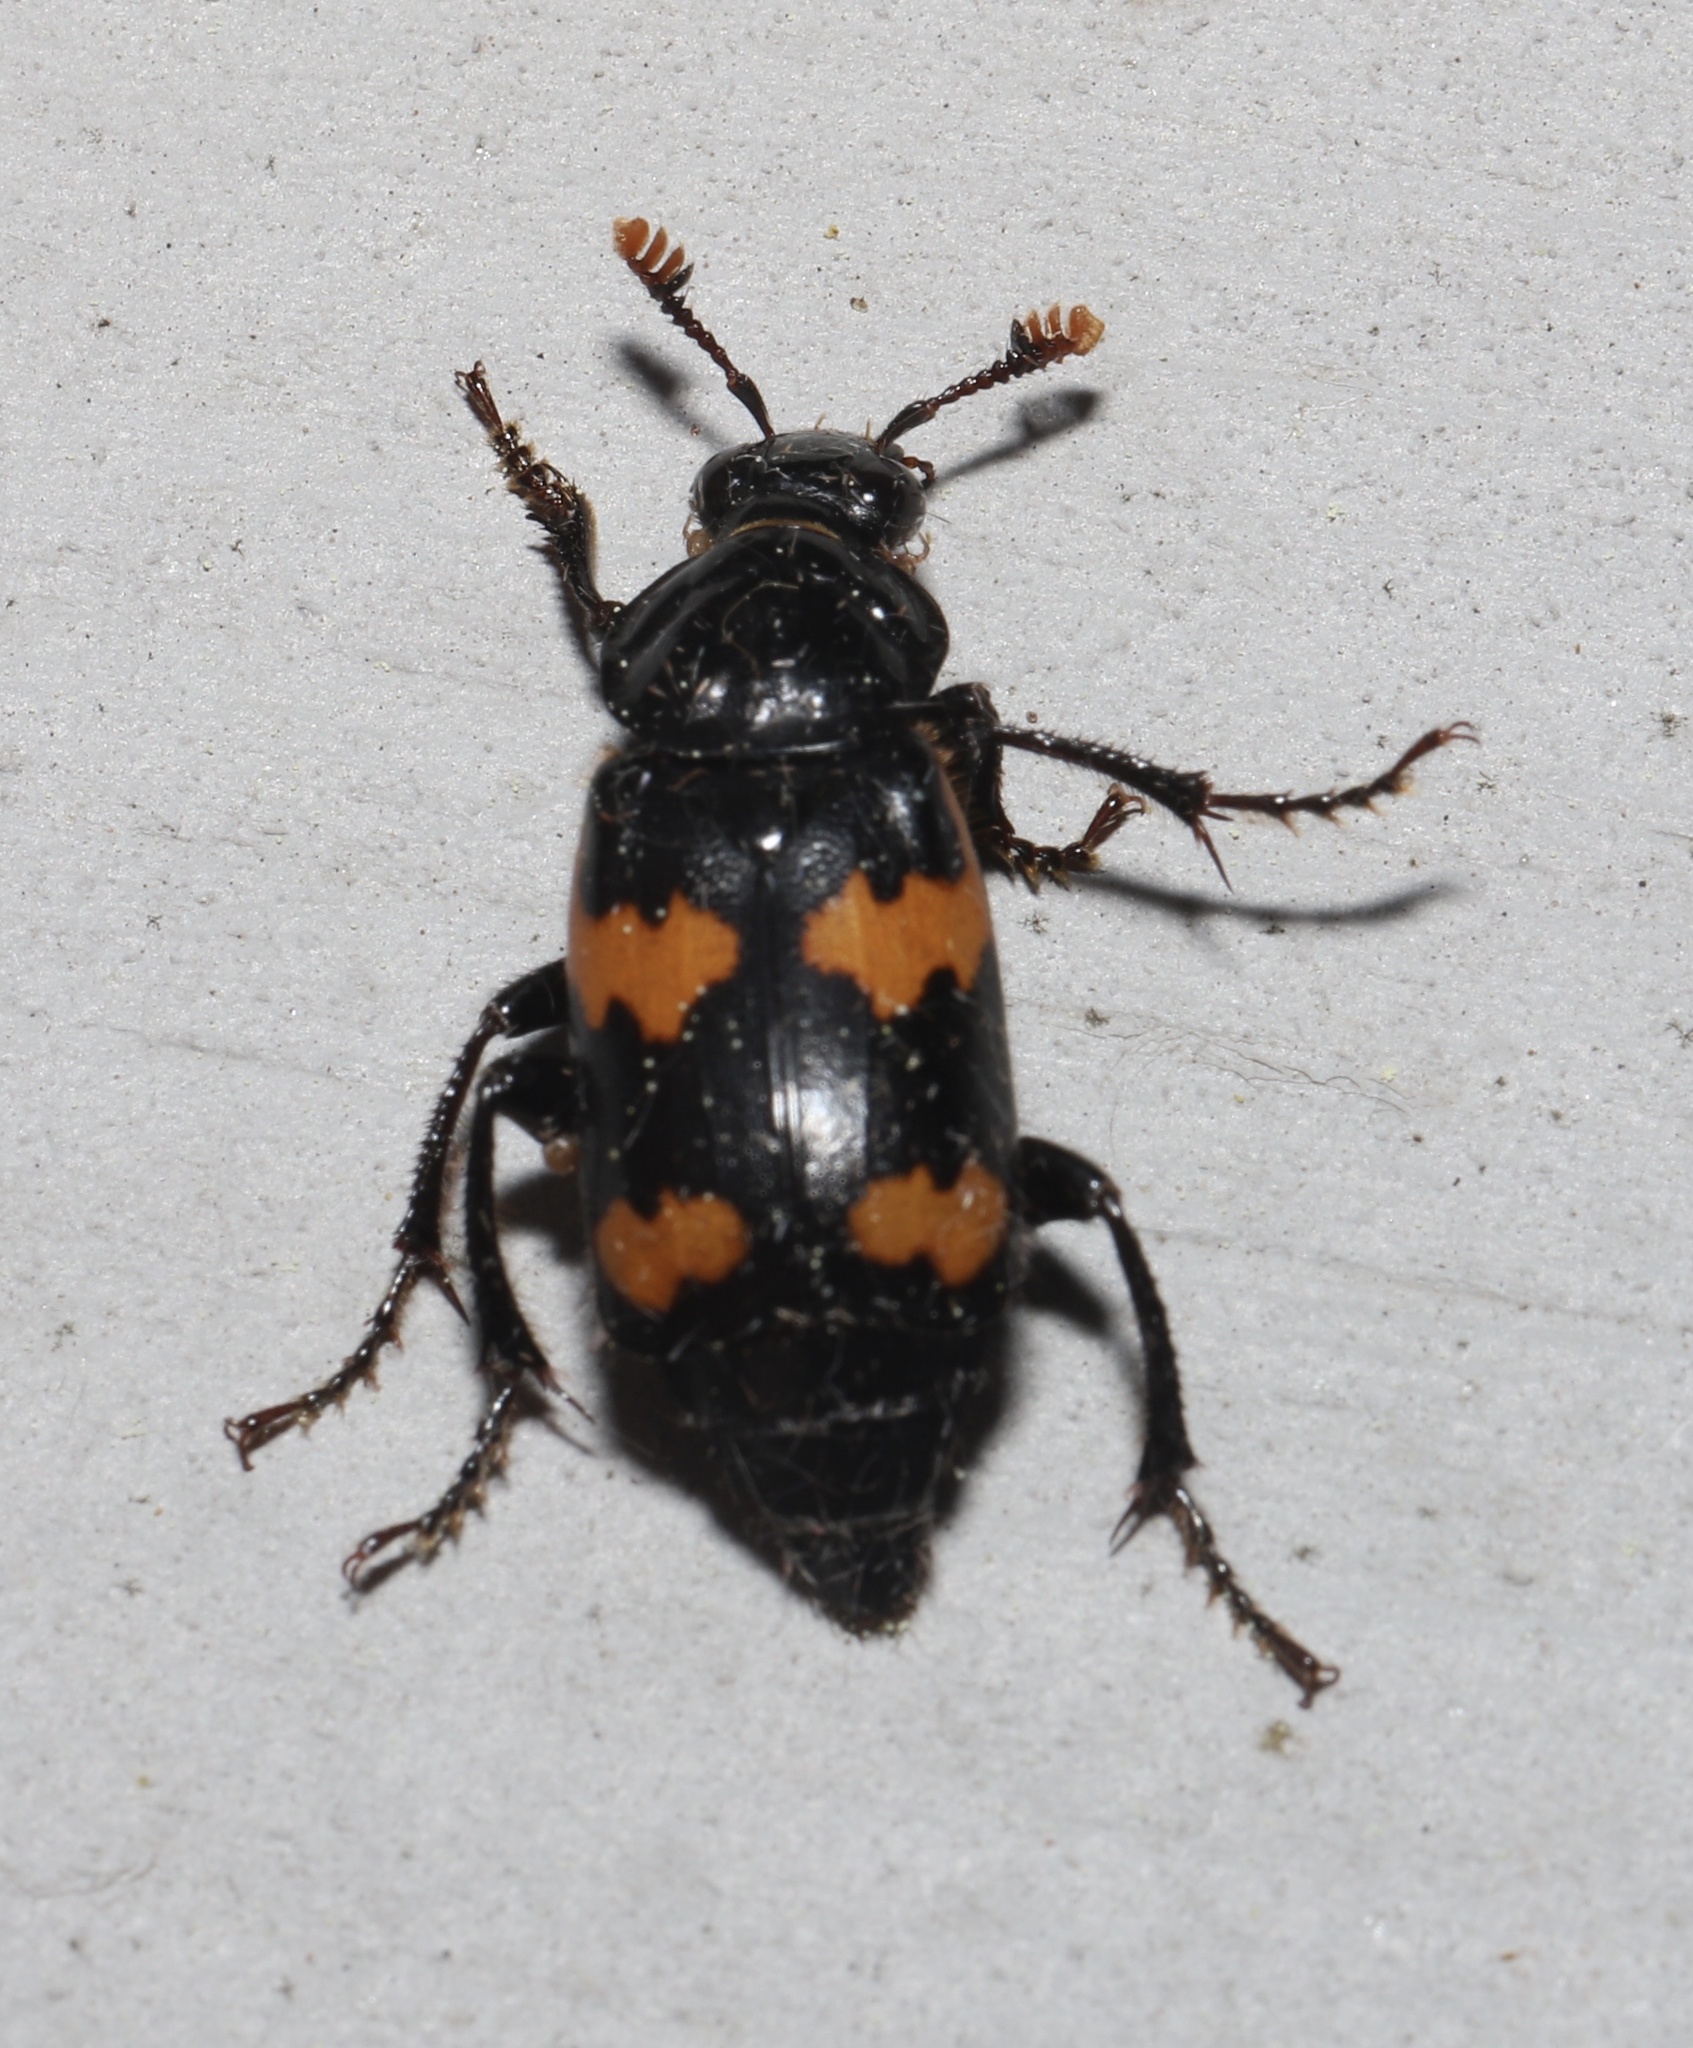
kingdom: Animalia
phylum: Arthropoda
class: Insecta
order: Coleoptera
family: Staphylinidae
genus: Nicrophorus
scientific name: Nicrophorus sayi
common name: Say's burying beetle
